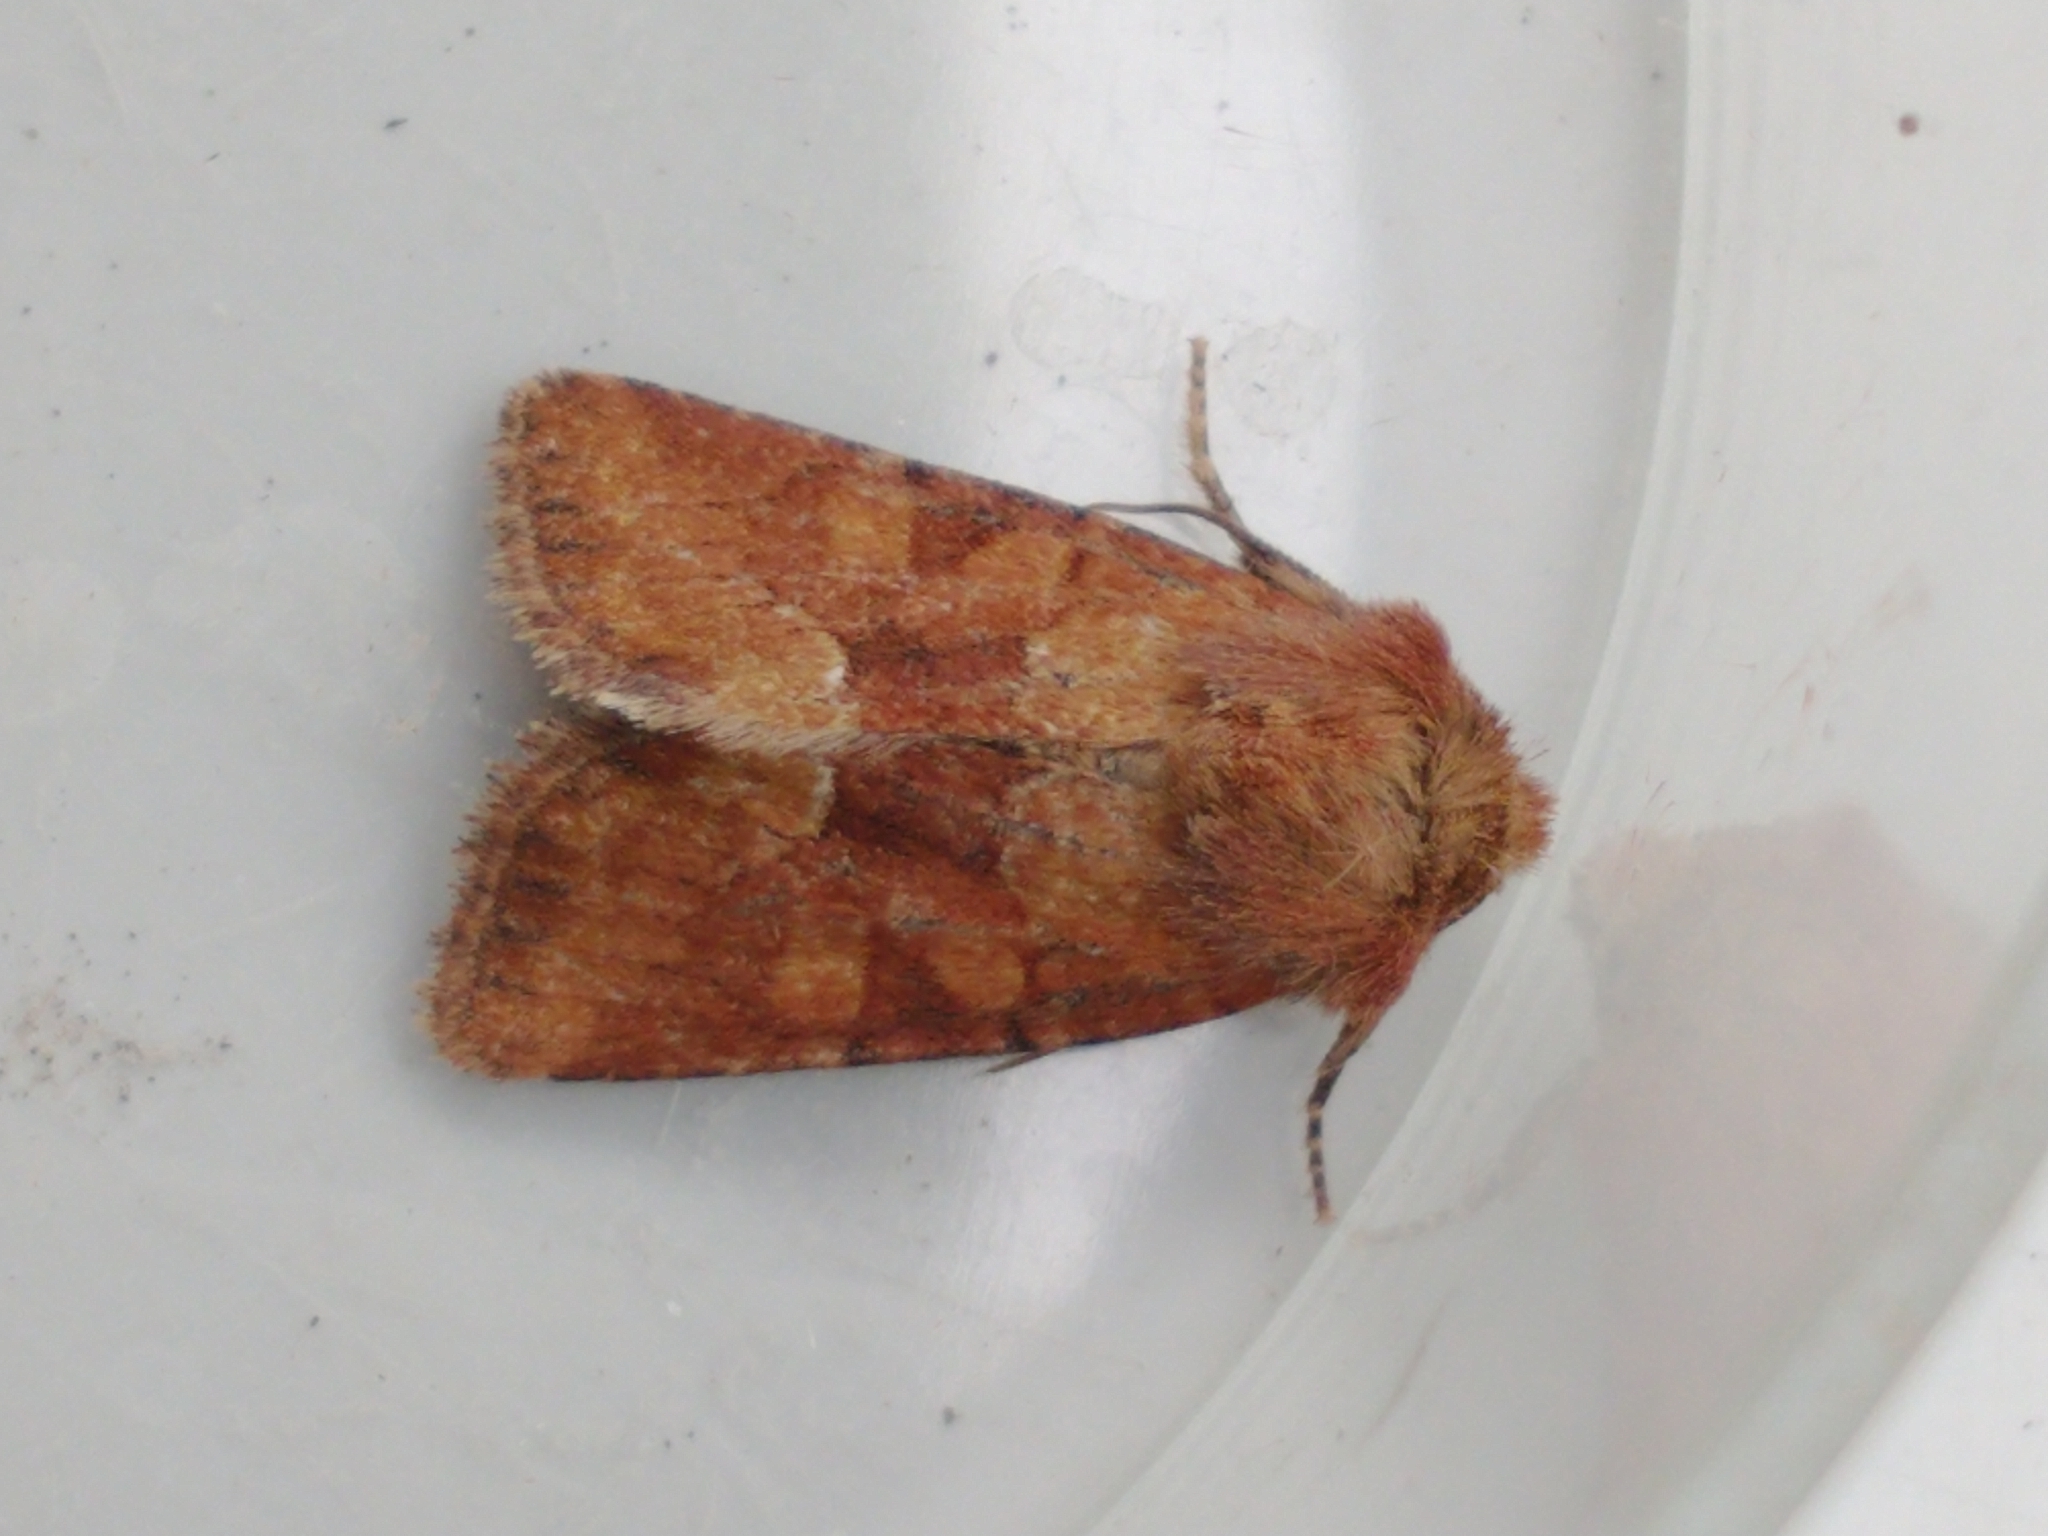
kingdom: Animalia
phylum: Arthropoda
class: Insecta
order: Lepidoptera
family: Noctuidae
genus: Oligia
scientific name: Oligia fasciuncula
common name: Middle-barred minor
